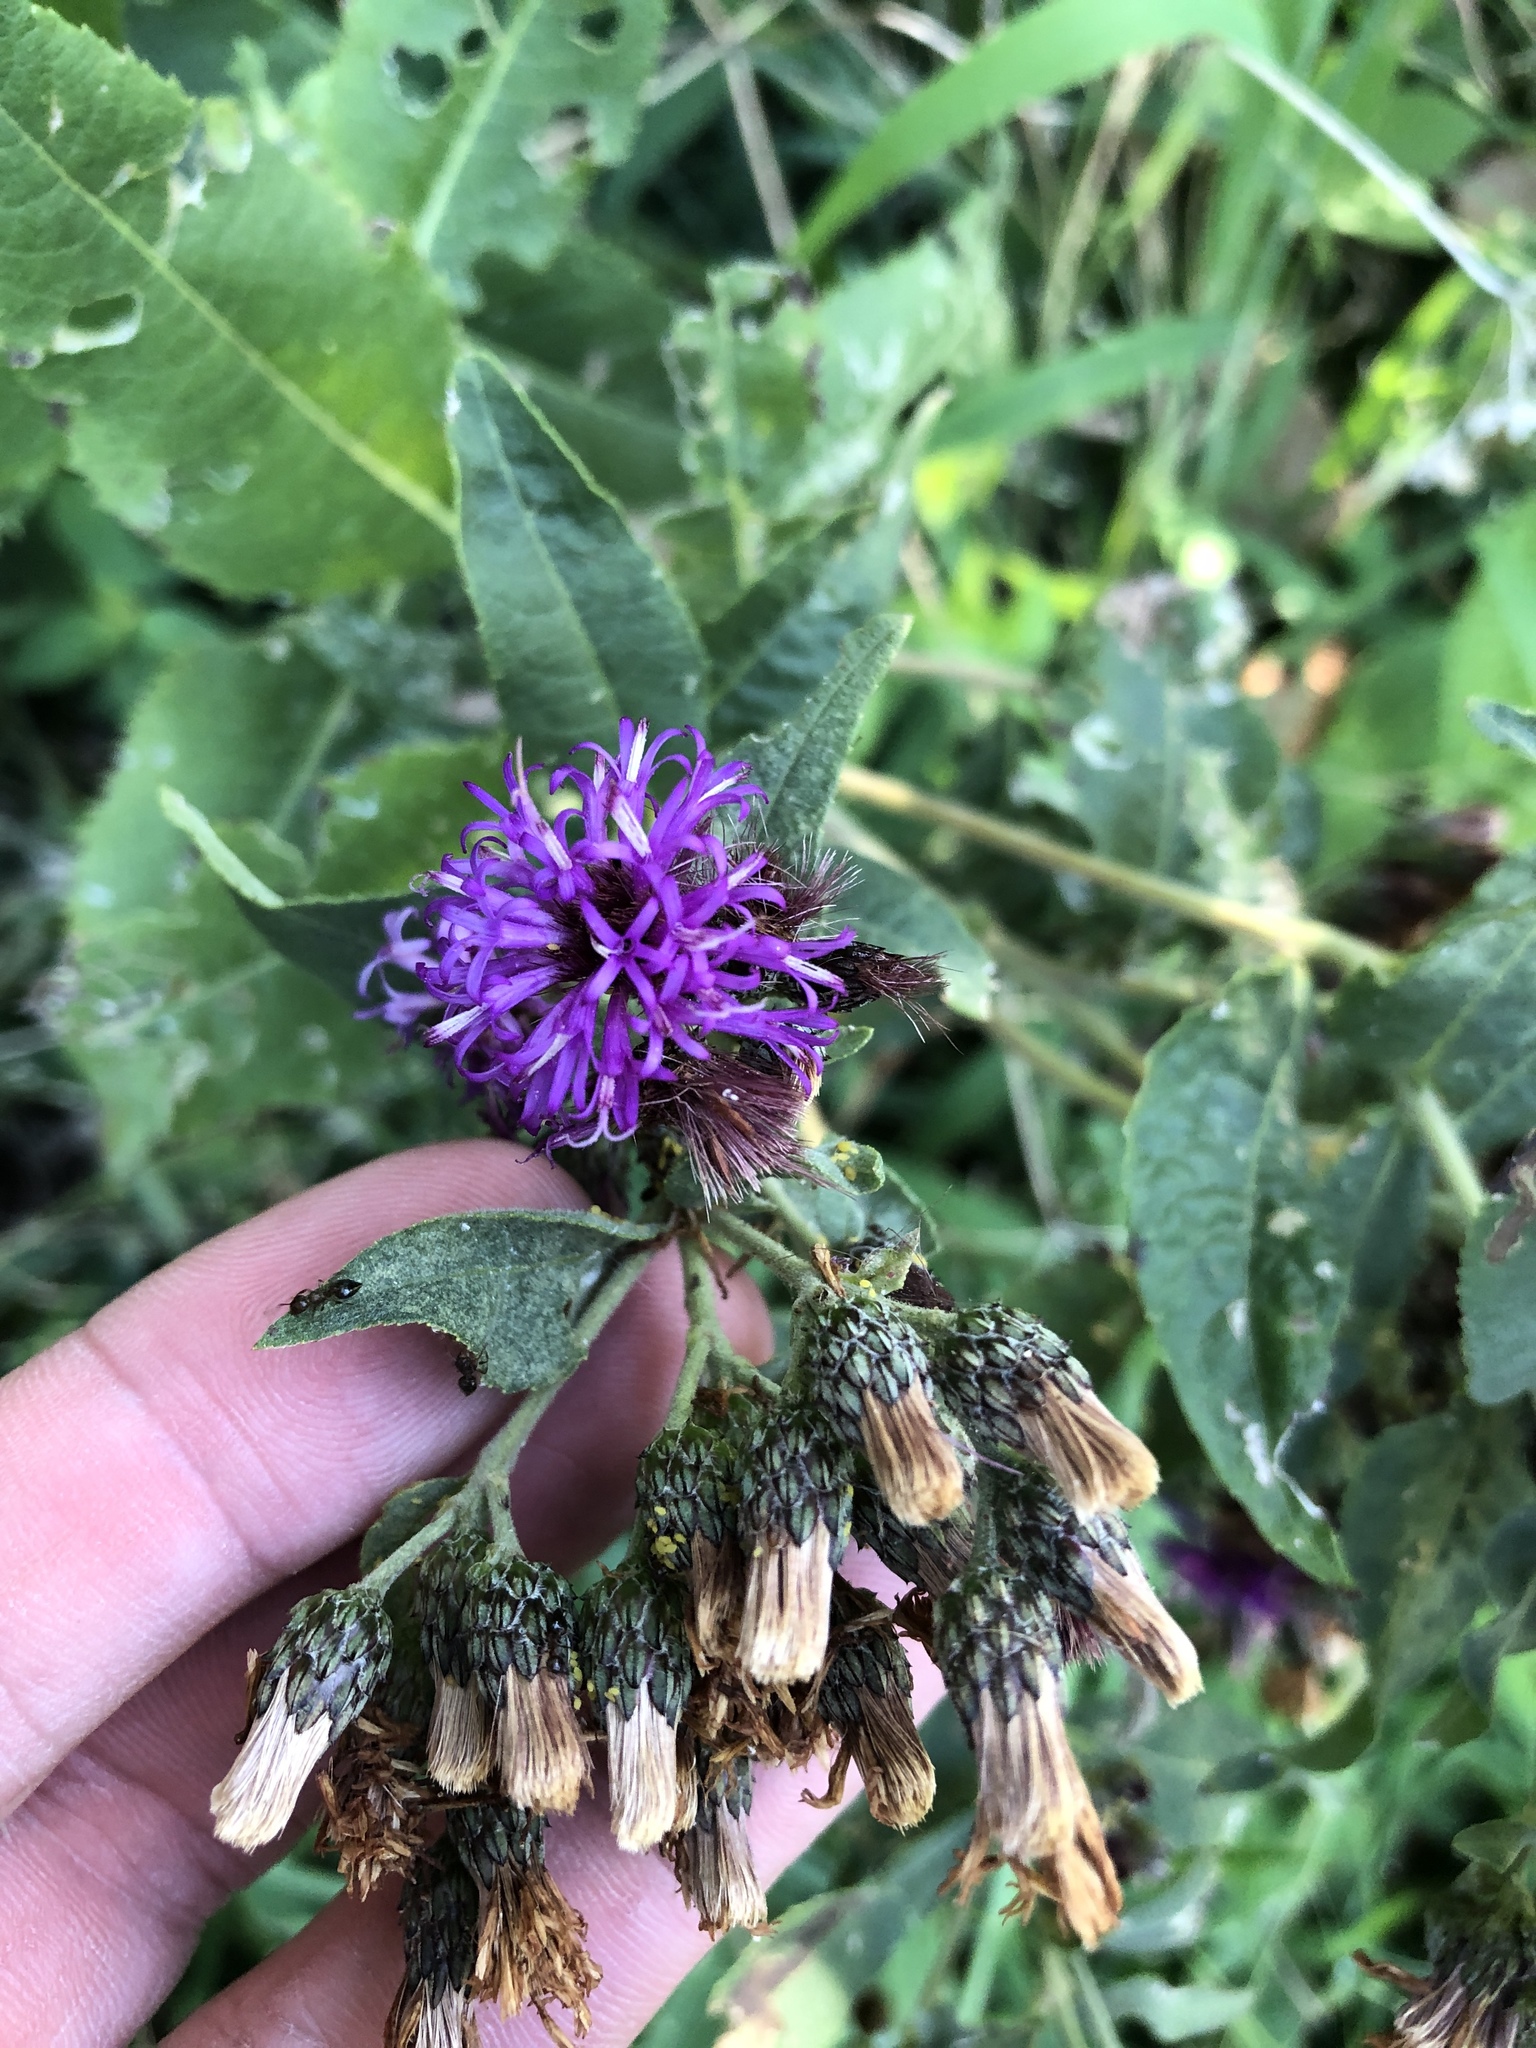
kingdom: Plantae
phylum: Tracheophyta
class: Magnoliopsida
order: Asterales
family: Asteraceae
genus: Vernonia
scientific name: Vernonia baldwinii
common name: Western ironweed
